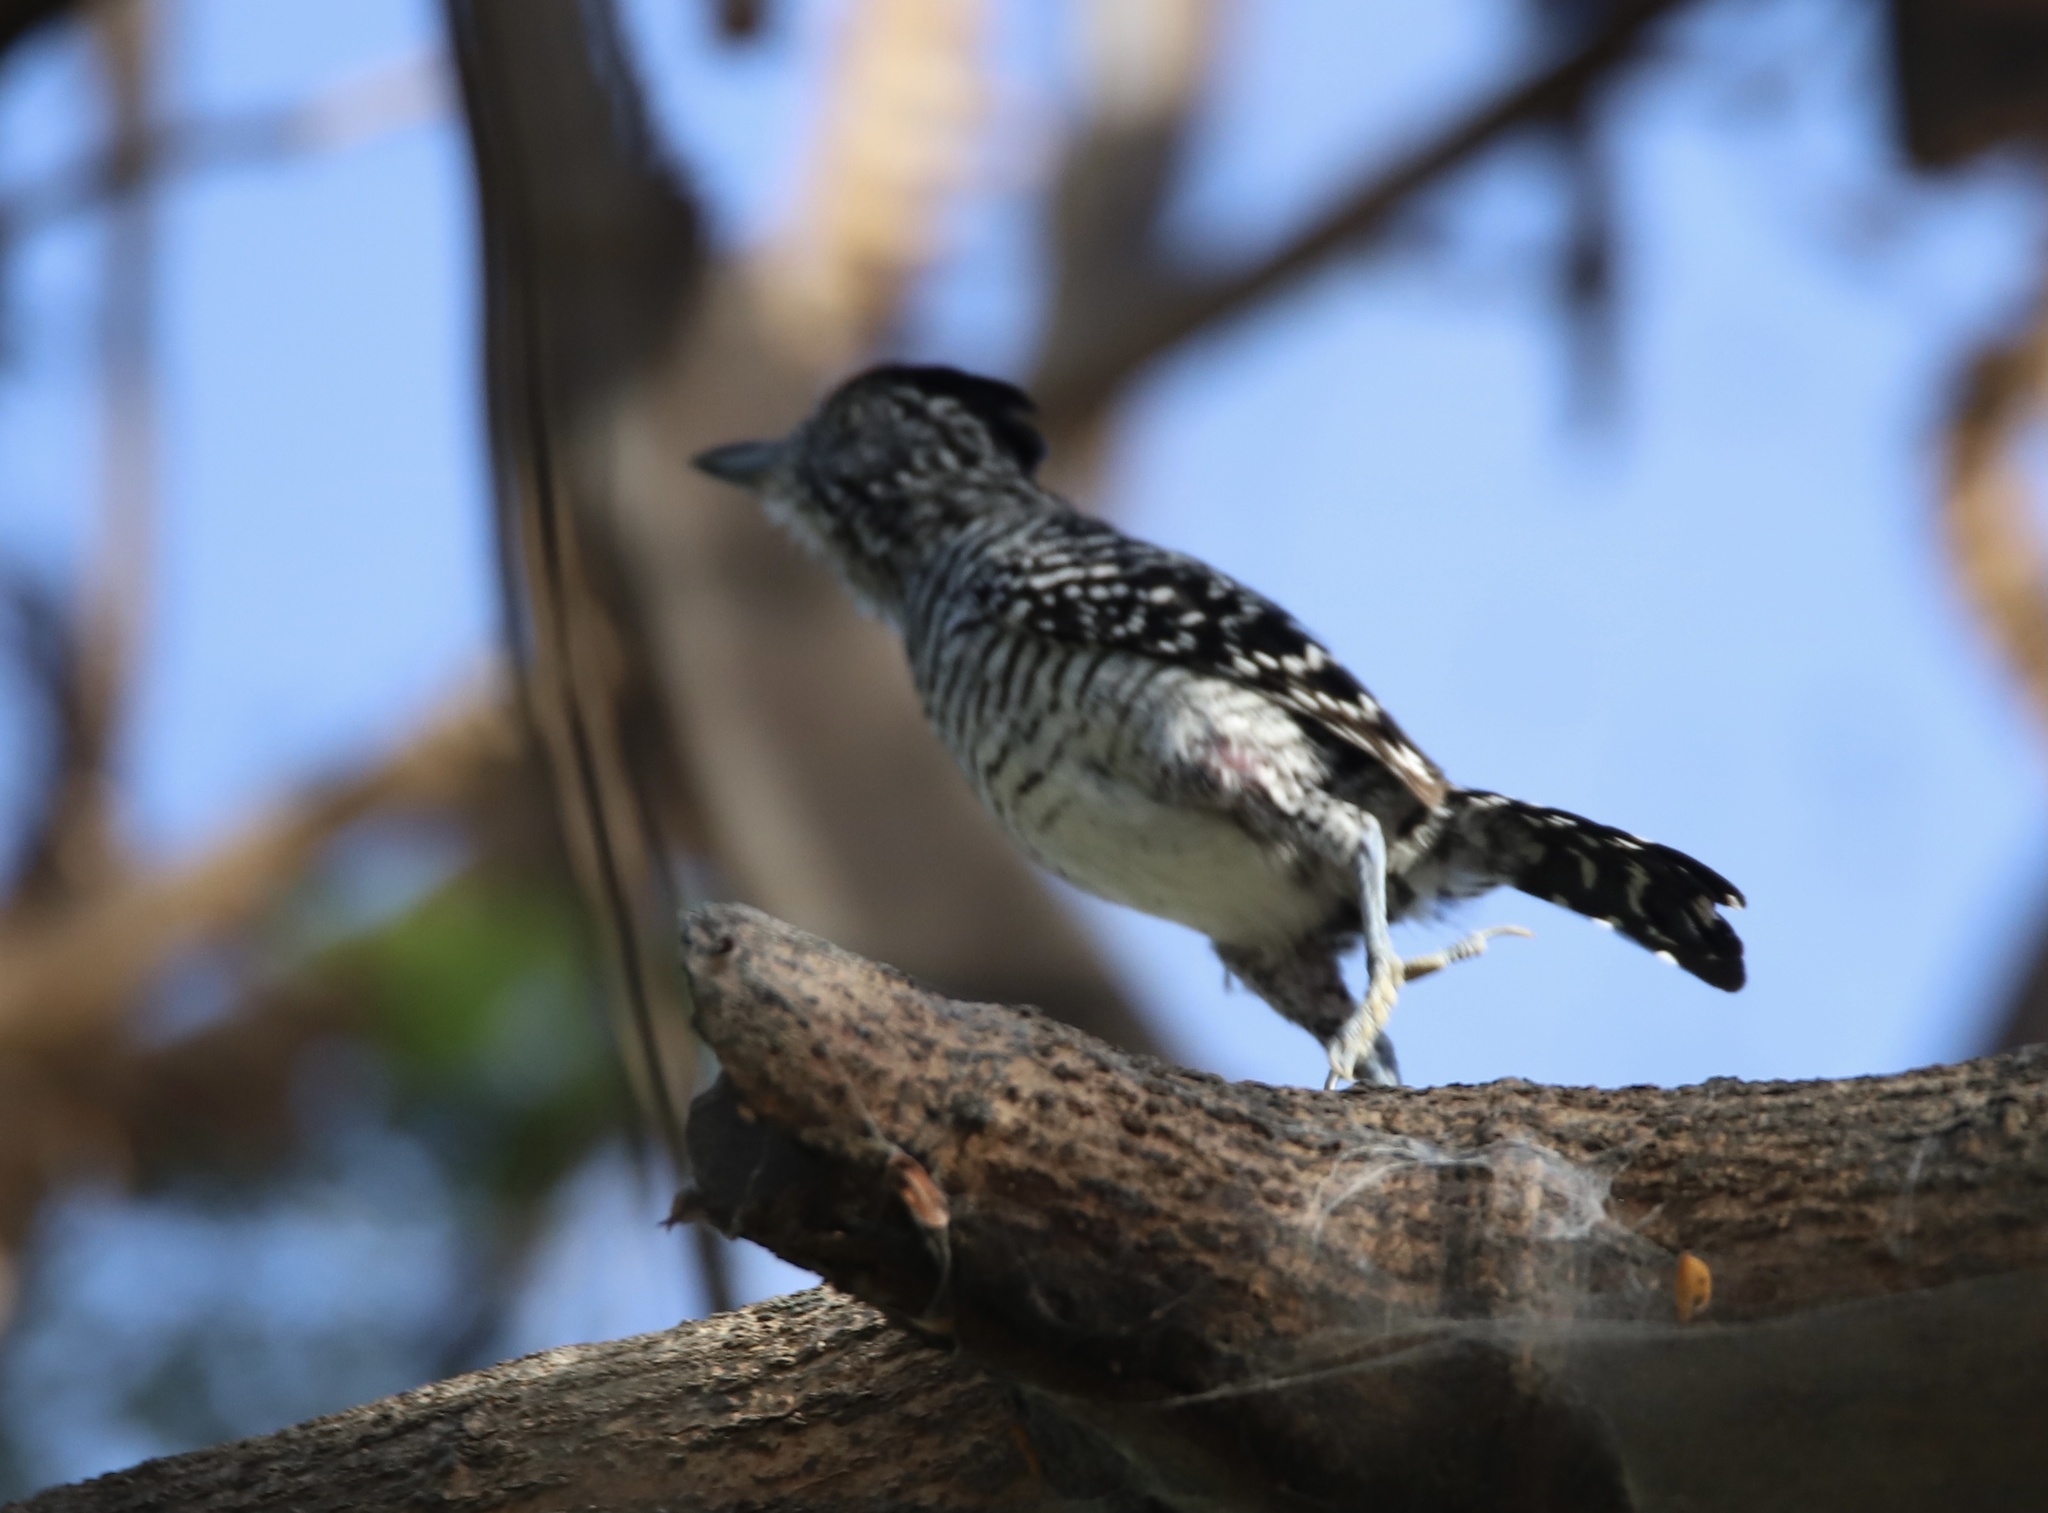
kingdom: Animalia
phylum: Chordata
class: Aves
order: Passeriformes
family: Thamnophilidae
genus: Thamnophilus
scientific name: Thamnophilus doliatus
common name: Barred antshrike
